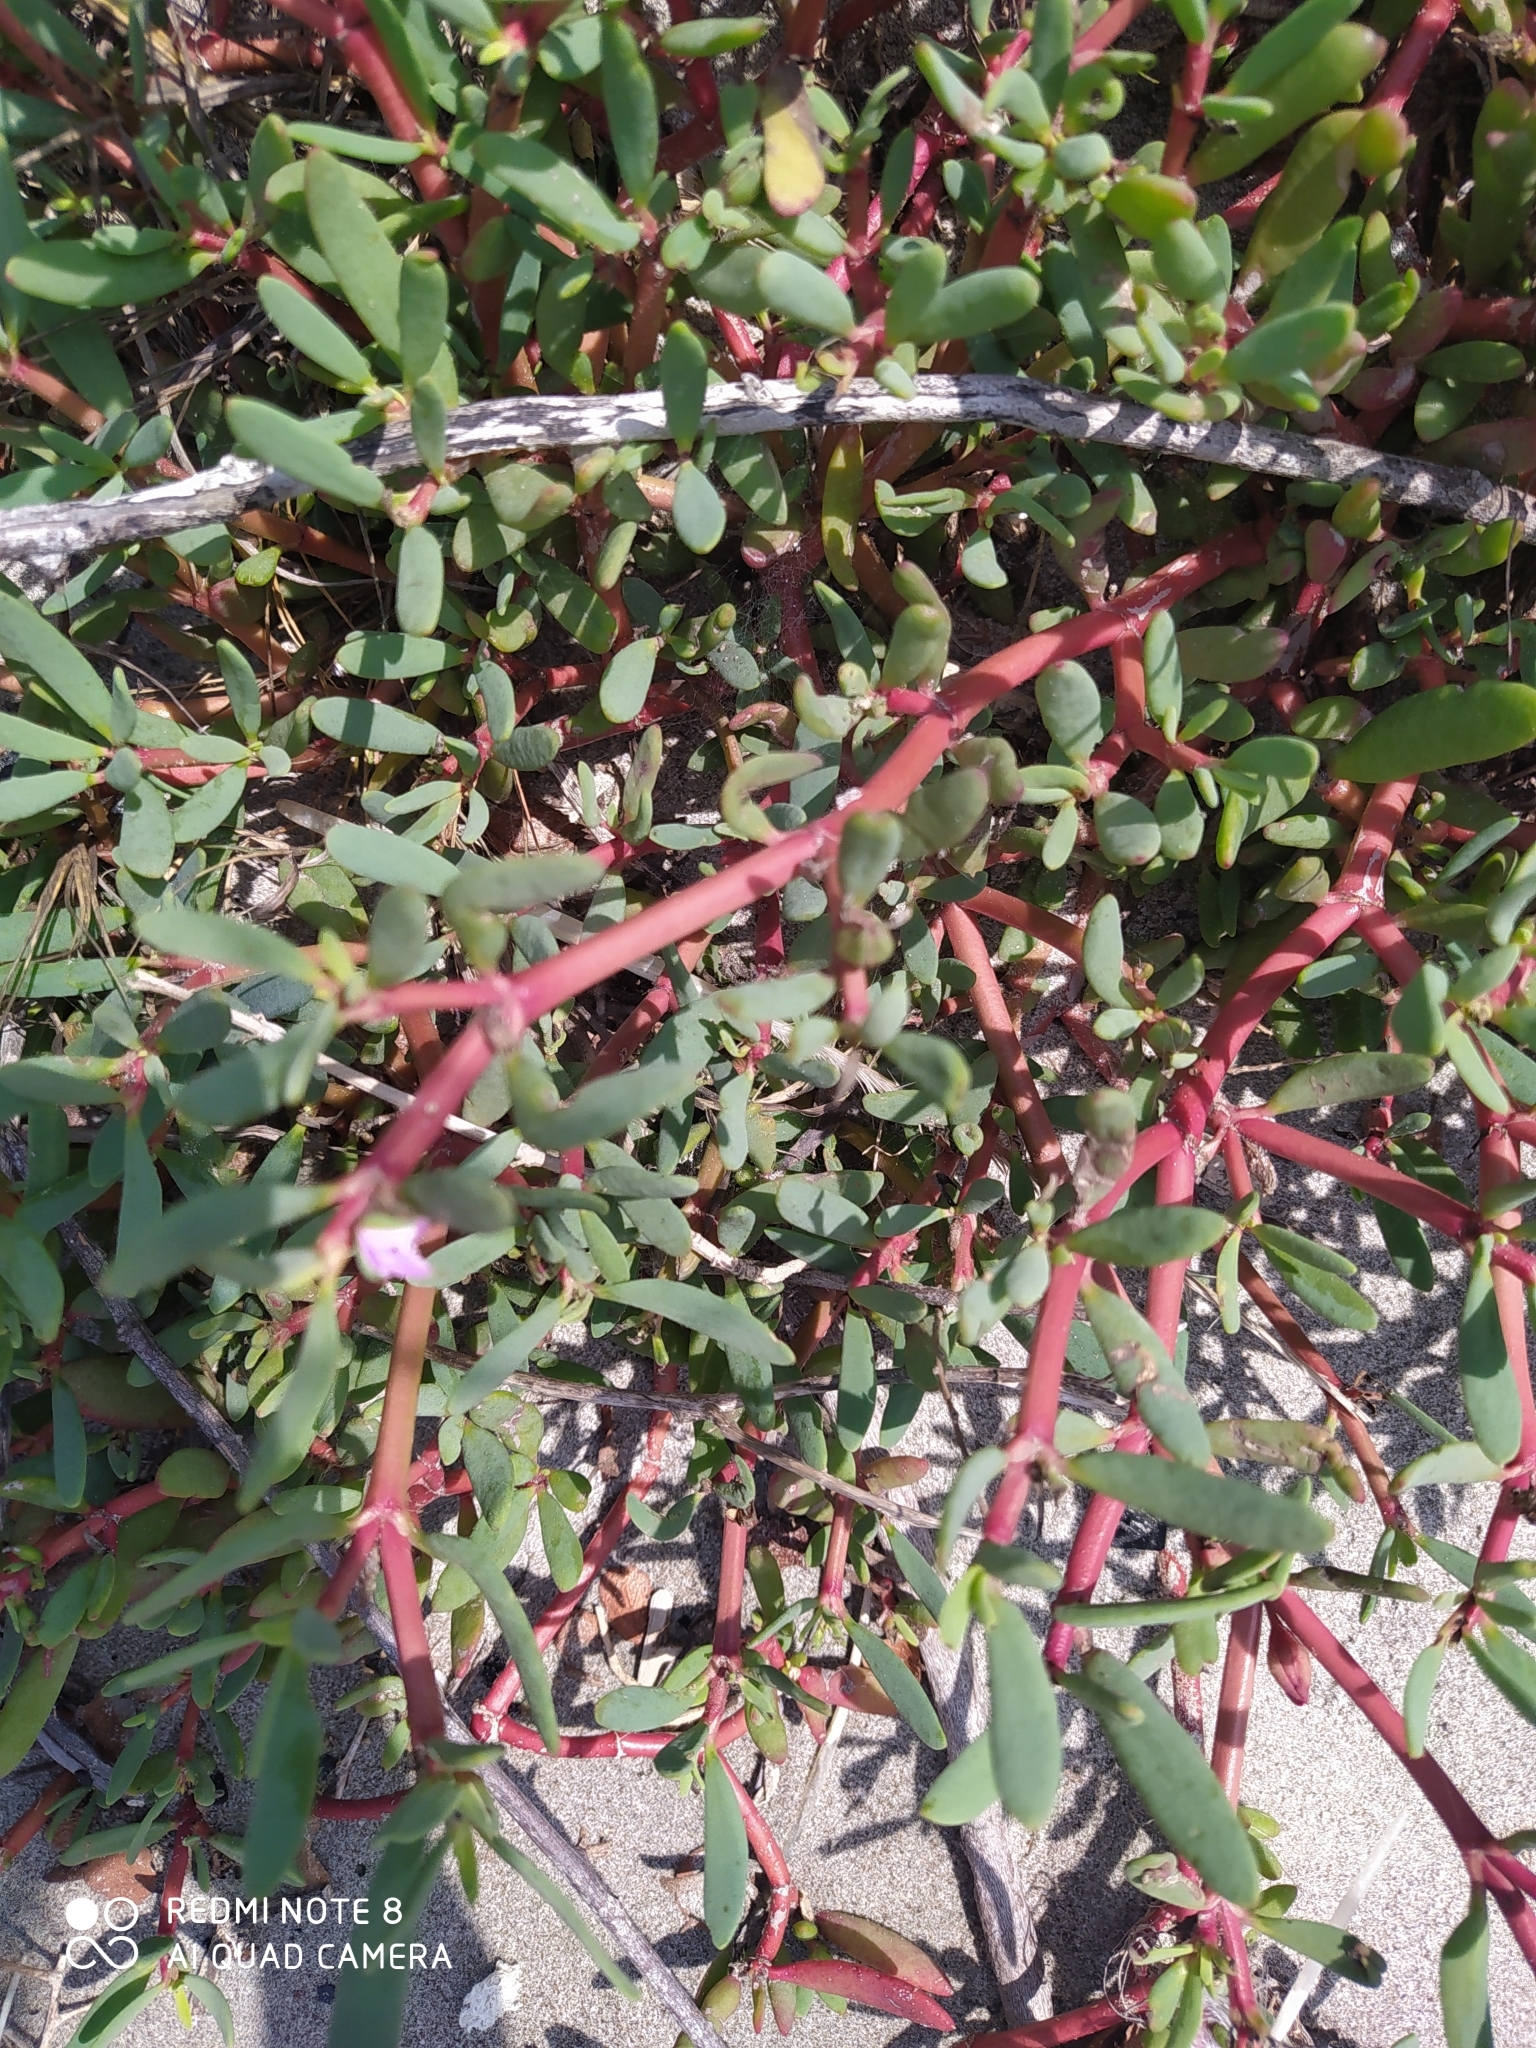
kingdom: Plantae
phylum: Tracheophyta
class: Magnoliopsida
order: Caryophyllales
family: Aizoaceae
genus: Sesuvium
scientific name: Sesuvium portulacastrum
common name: Sea-purslane
